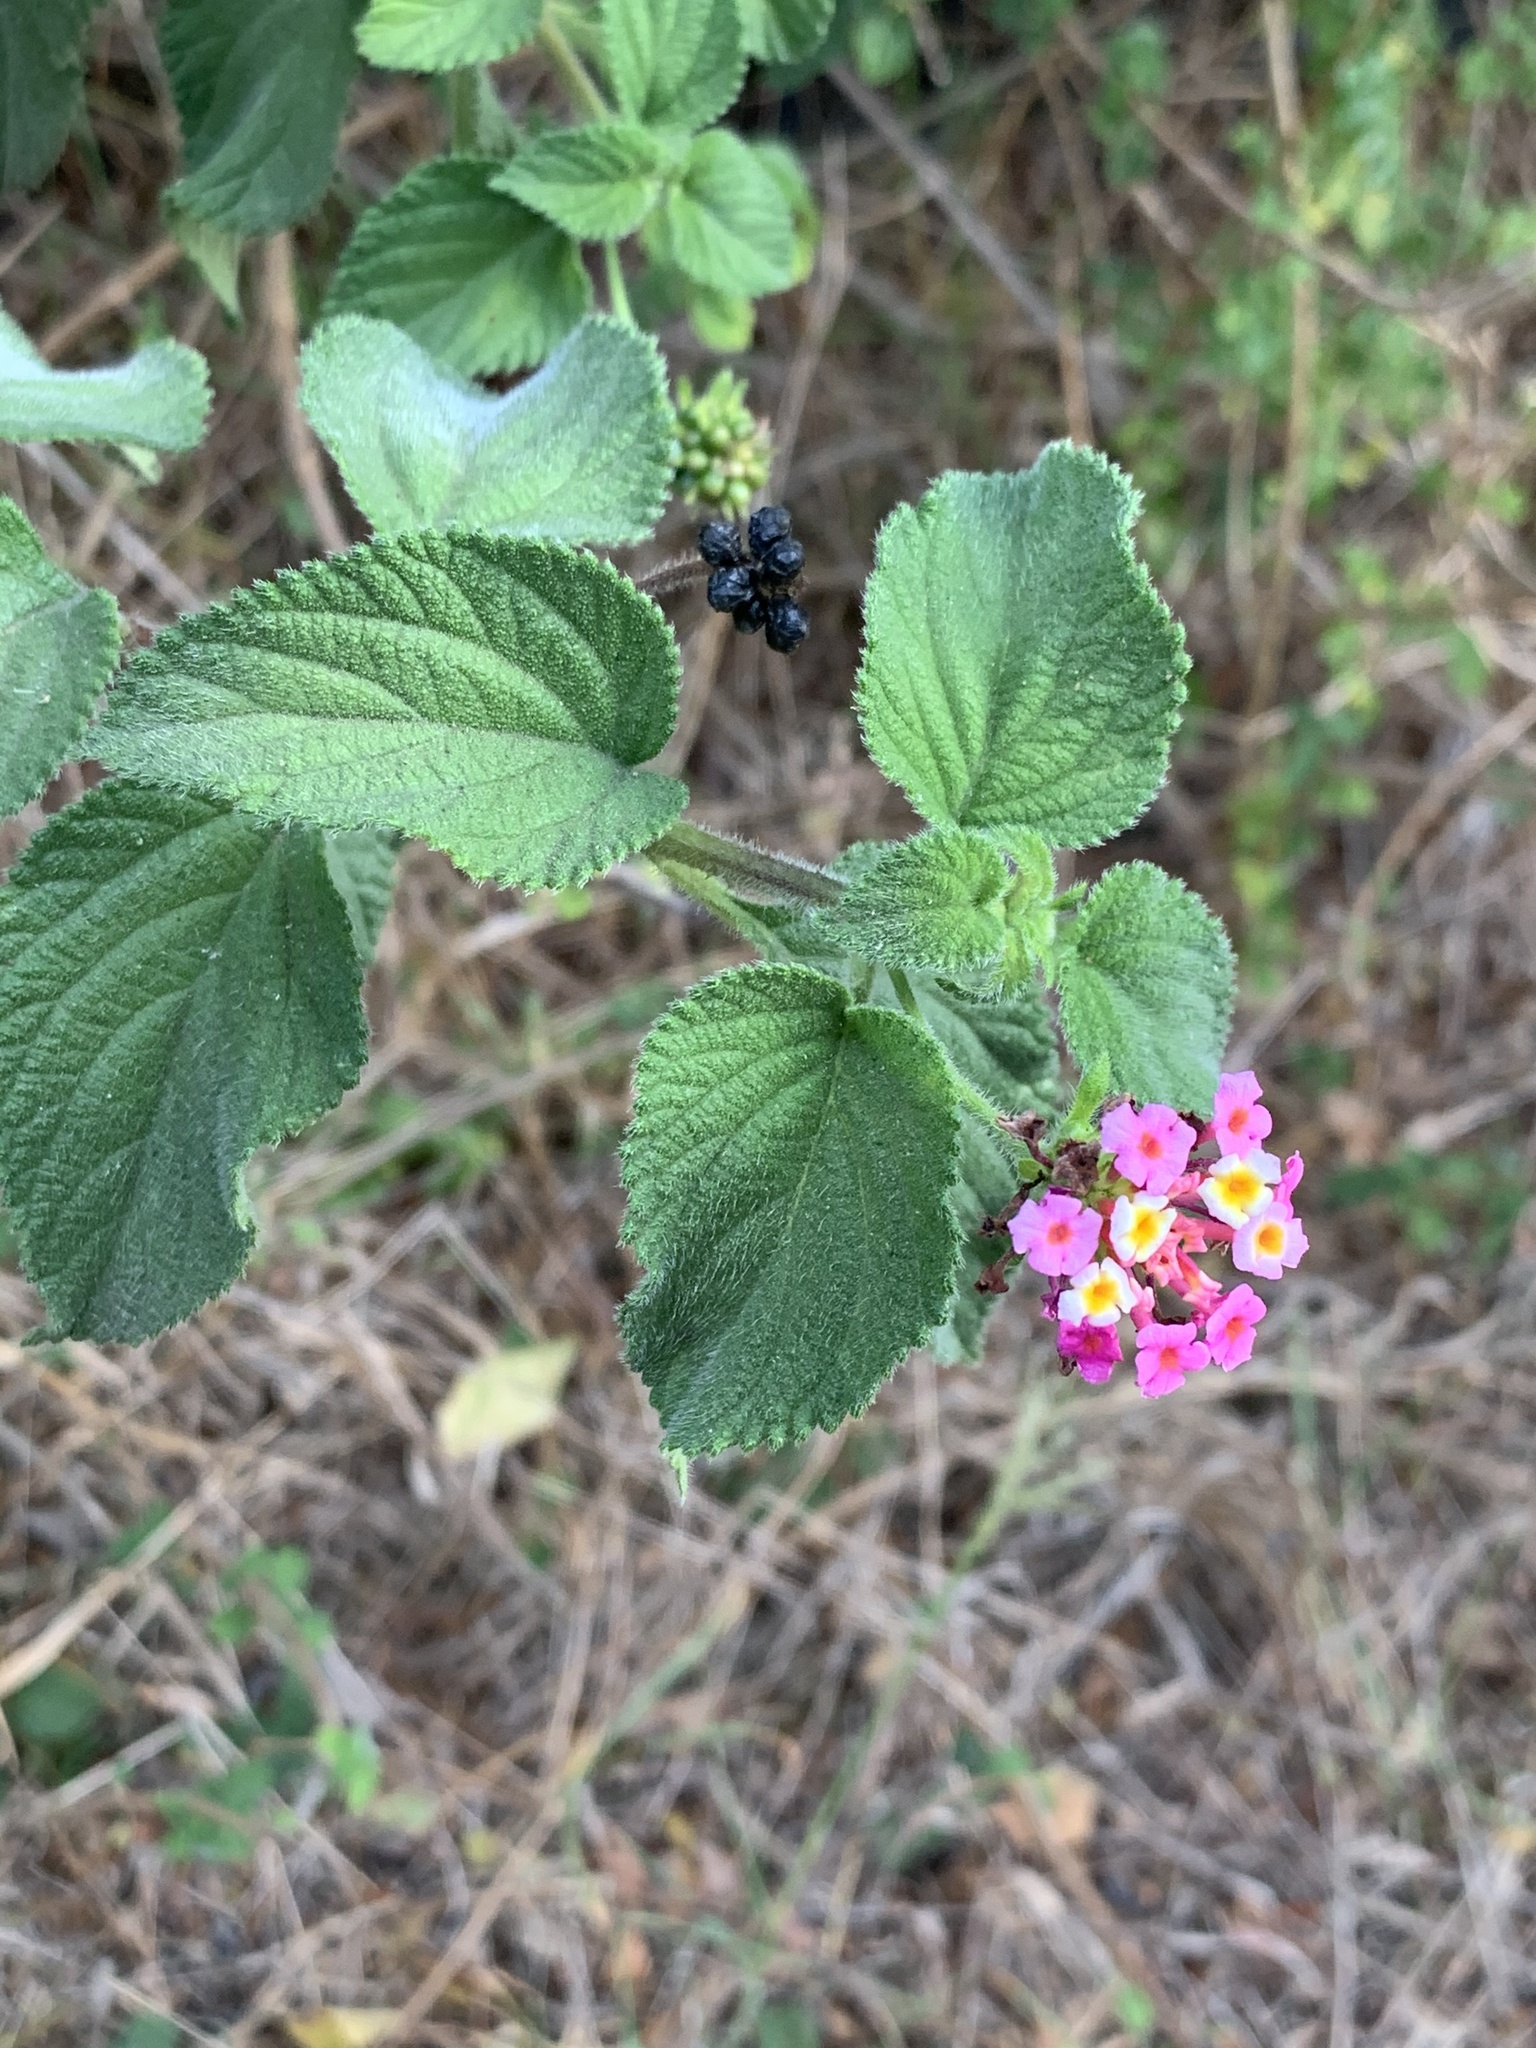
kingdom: Plantae
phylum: Tracheophyta
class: Magnoliopsida
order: Lamiales
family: Verbenaceae
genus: Lantana
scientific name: Lantana camara
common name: Lantana
